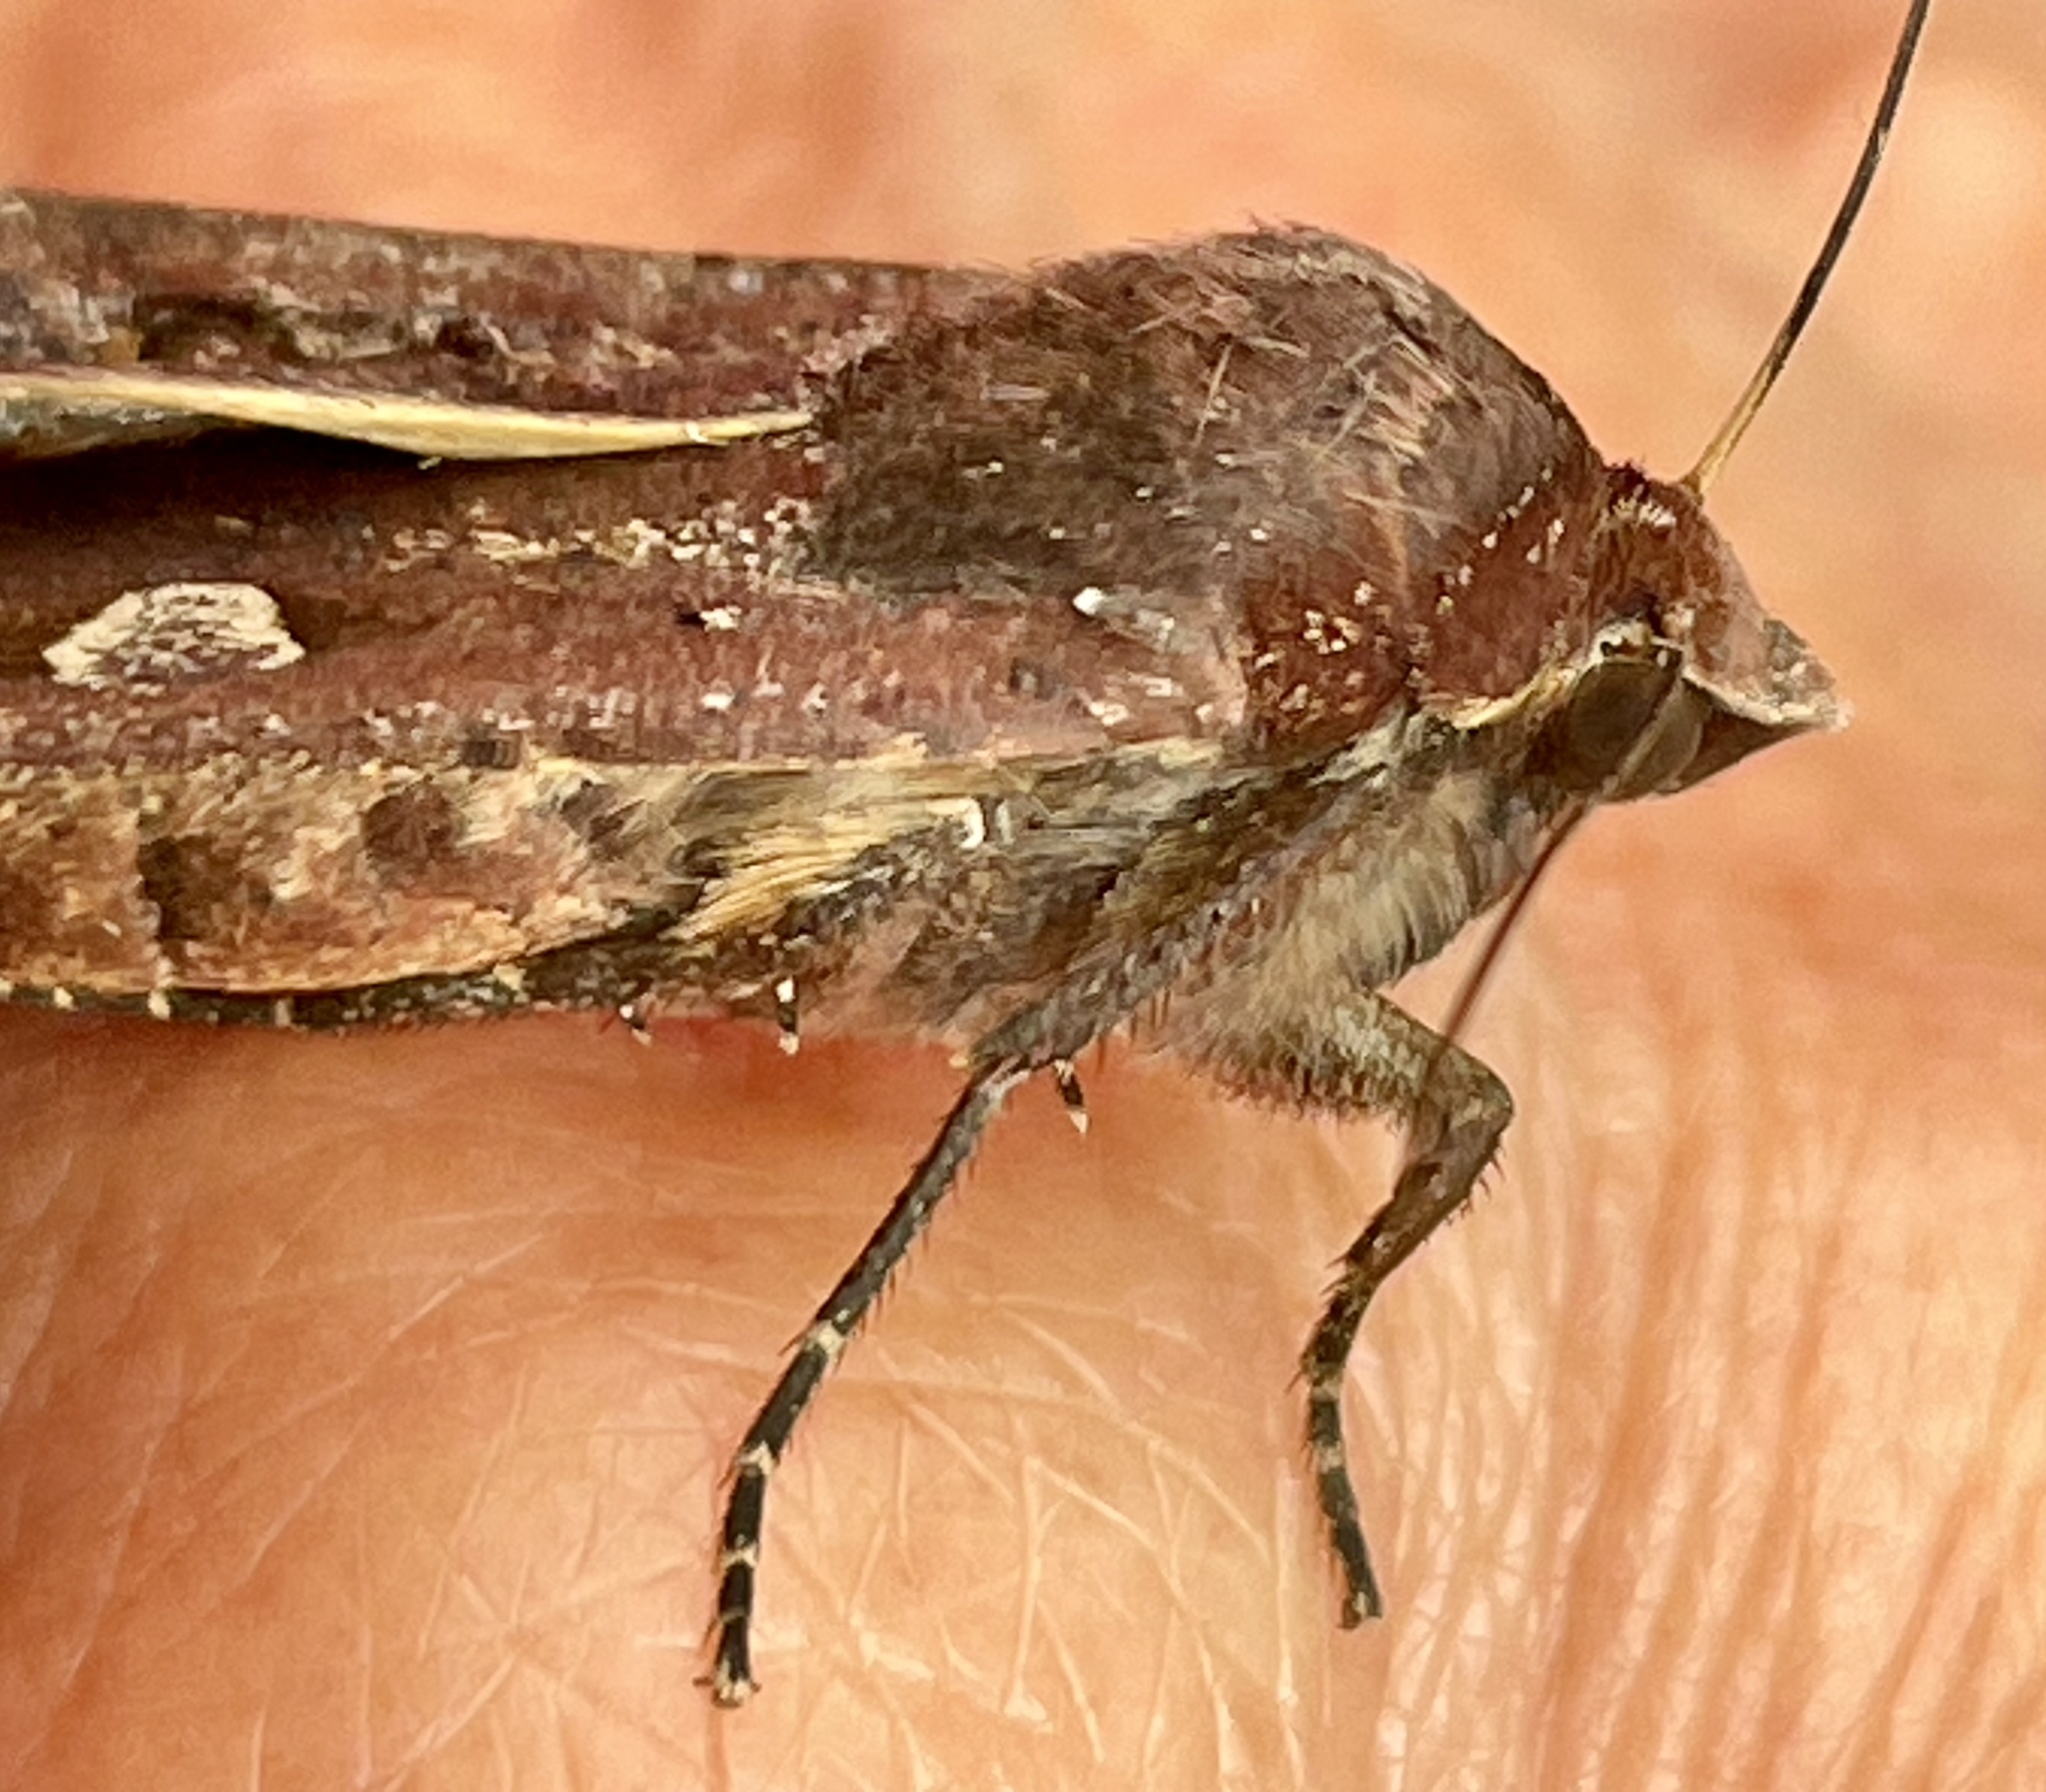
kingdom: Animalia
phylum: Arthropoda
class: Insecta
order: Lepidoptera
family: Noctuidae
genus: Noctua
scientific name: Noctua pronuba
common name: Large yellow underwing
